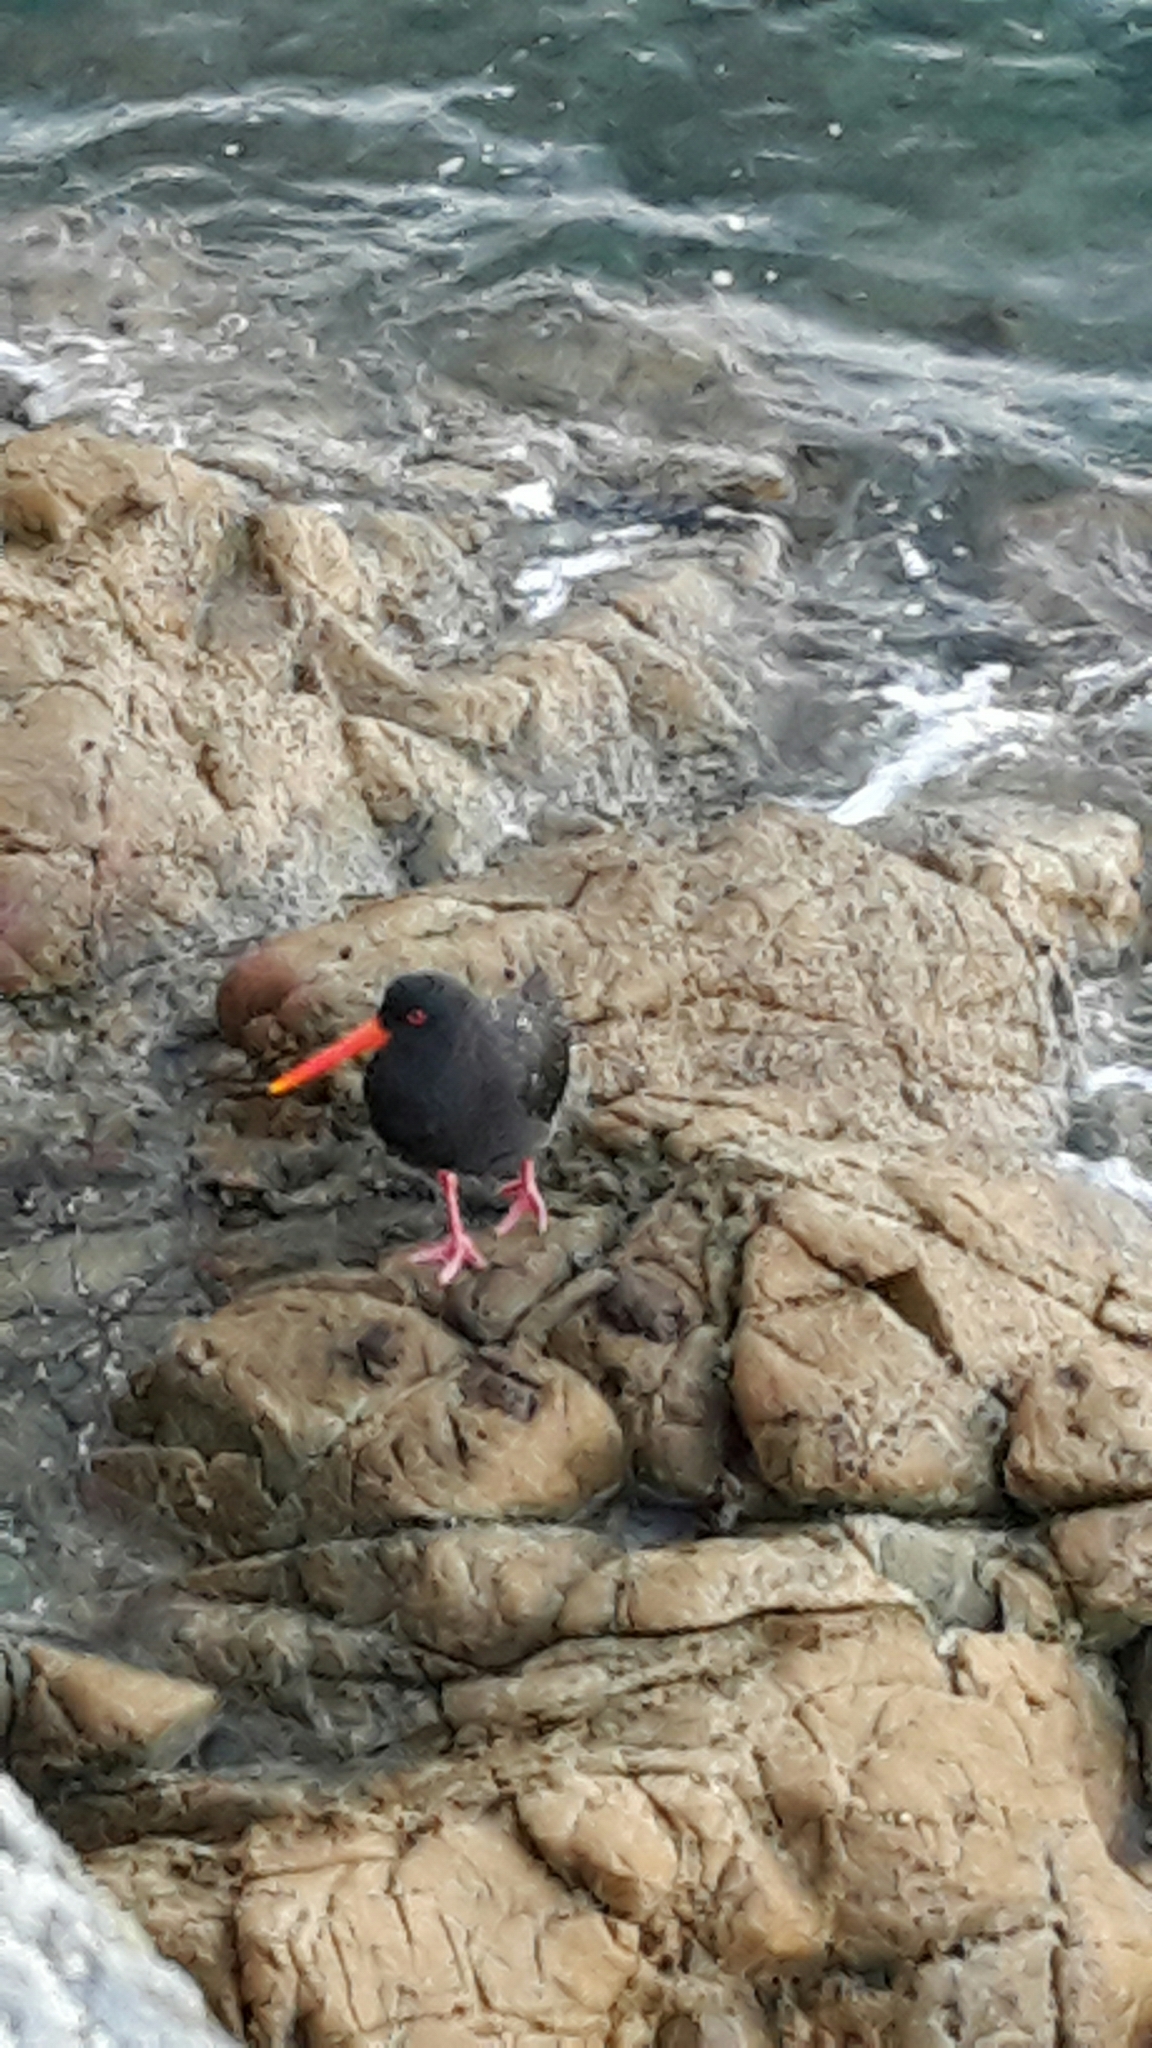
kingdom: Animalia
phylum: Chordata
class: Aves
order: Charadriiformes
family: Haematopodidae
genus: Haematopus
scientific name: Haematopus unicolor
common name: Variable oystercatcher
